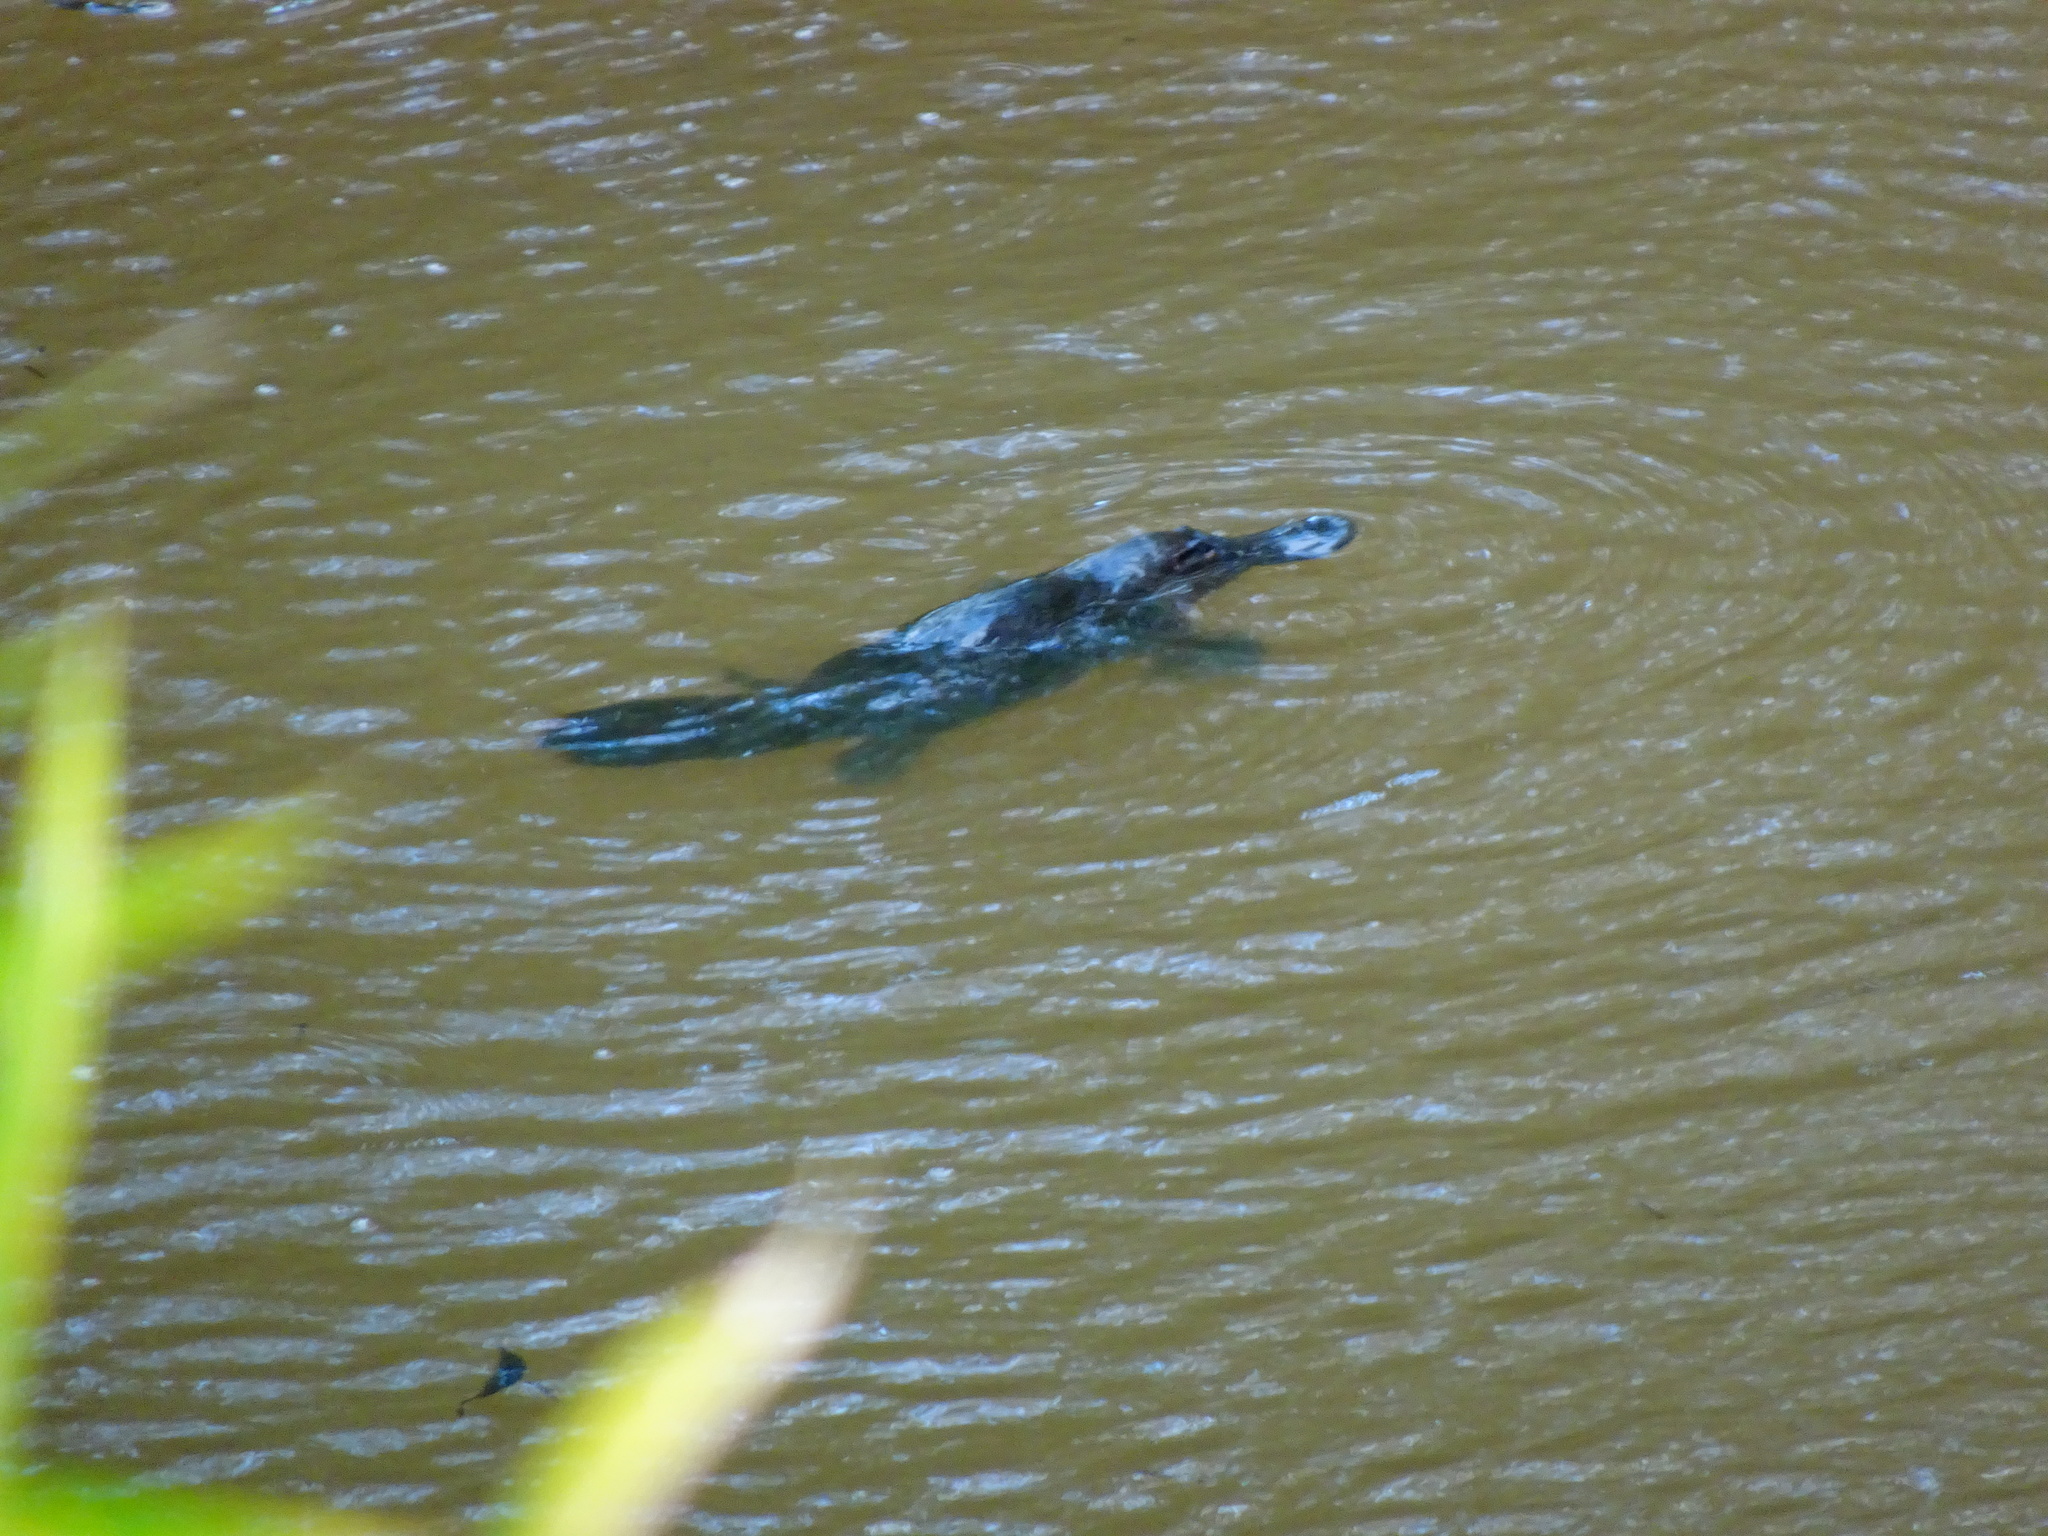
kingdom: Animalia
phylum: Chordata
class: Mammalia
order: Monotremata
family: Ornithorhynchidae
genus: Ornithorhynchus
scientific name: Ornithorhynchus anatinus
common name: Platypus
